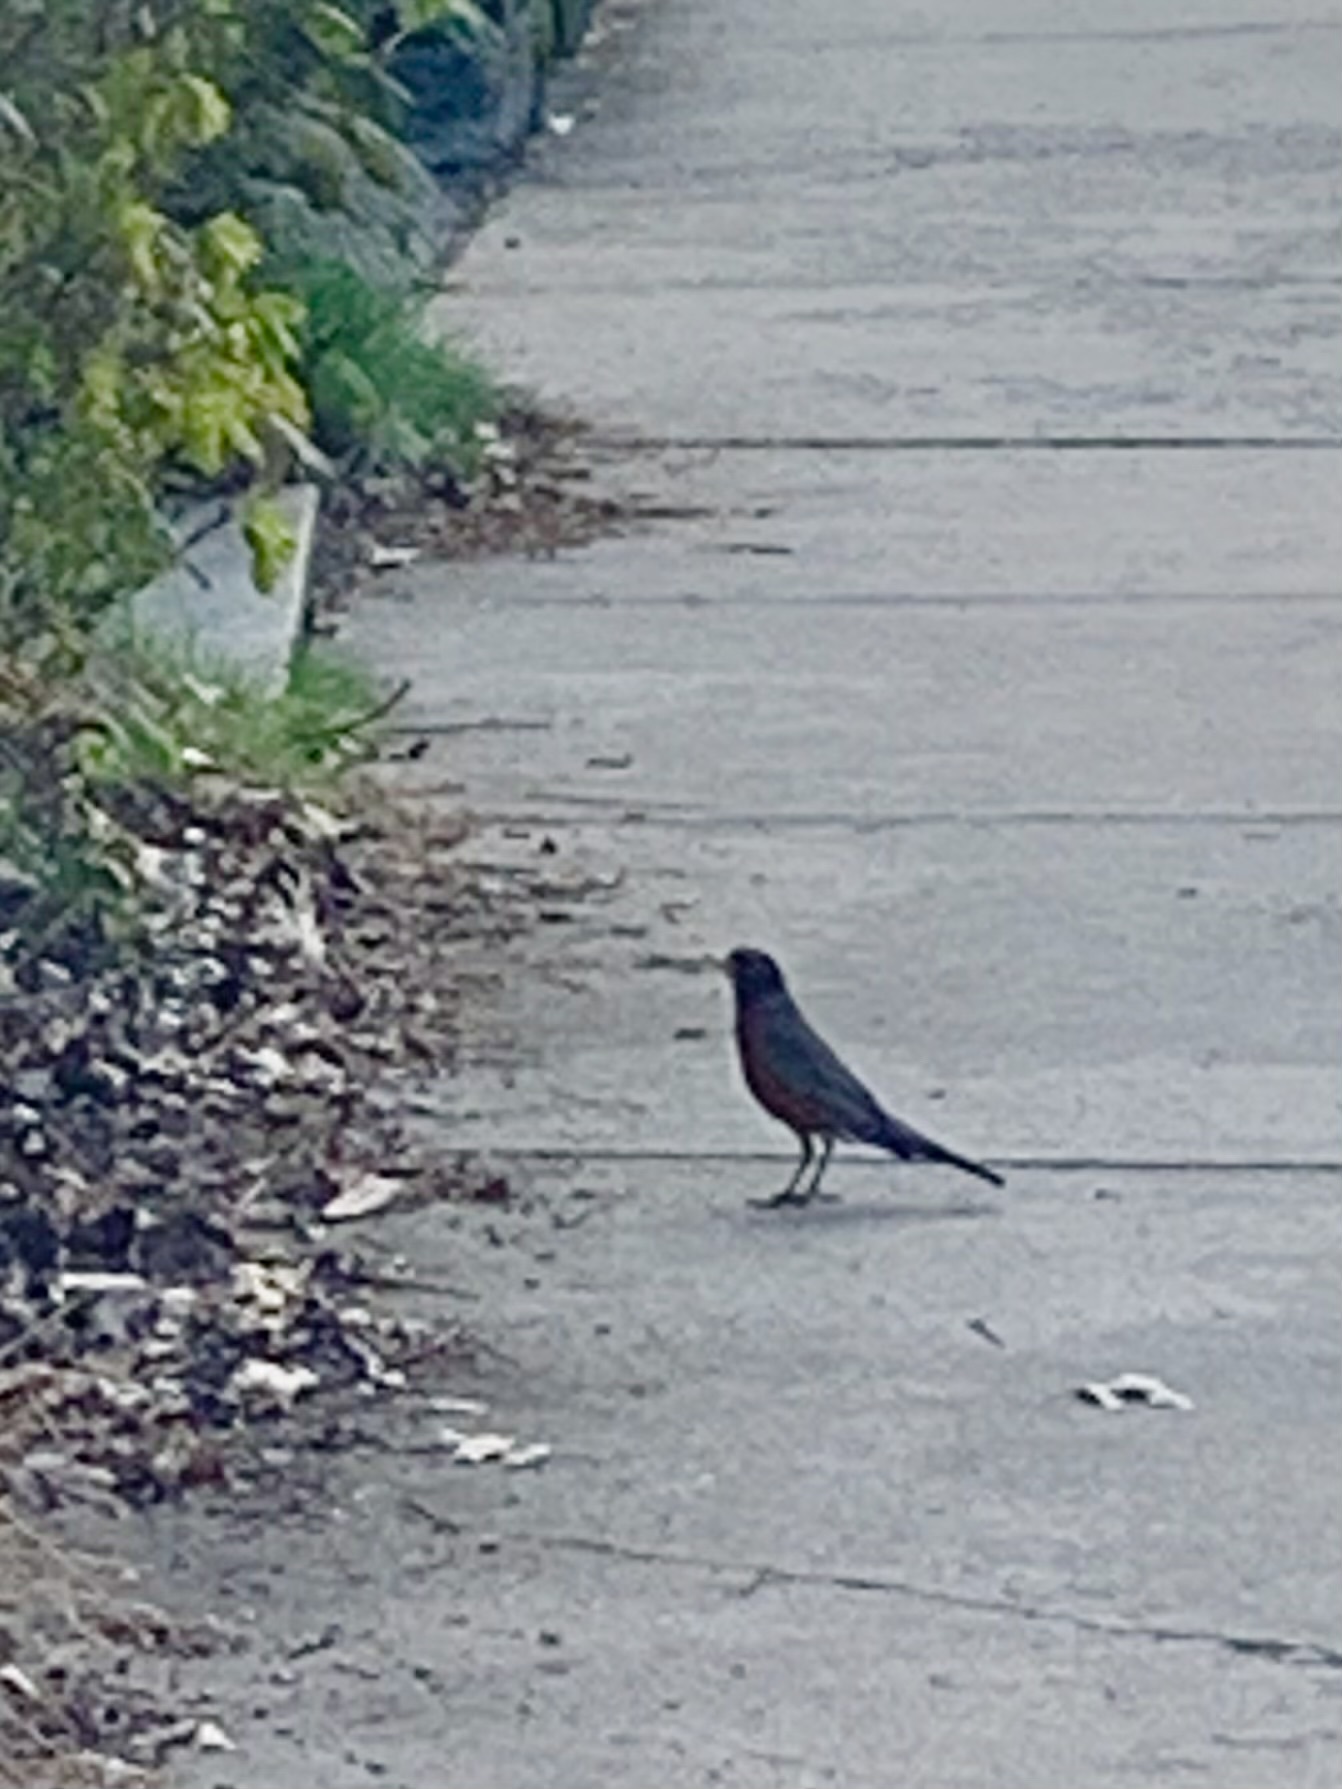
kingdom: Animalia
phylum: Chordata
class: Aves
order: Passeriformes
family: Turdidae
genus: Turdus
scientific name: Turdus migratorius
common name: American robin
